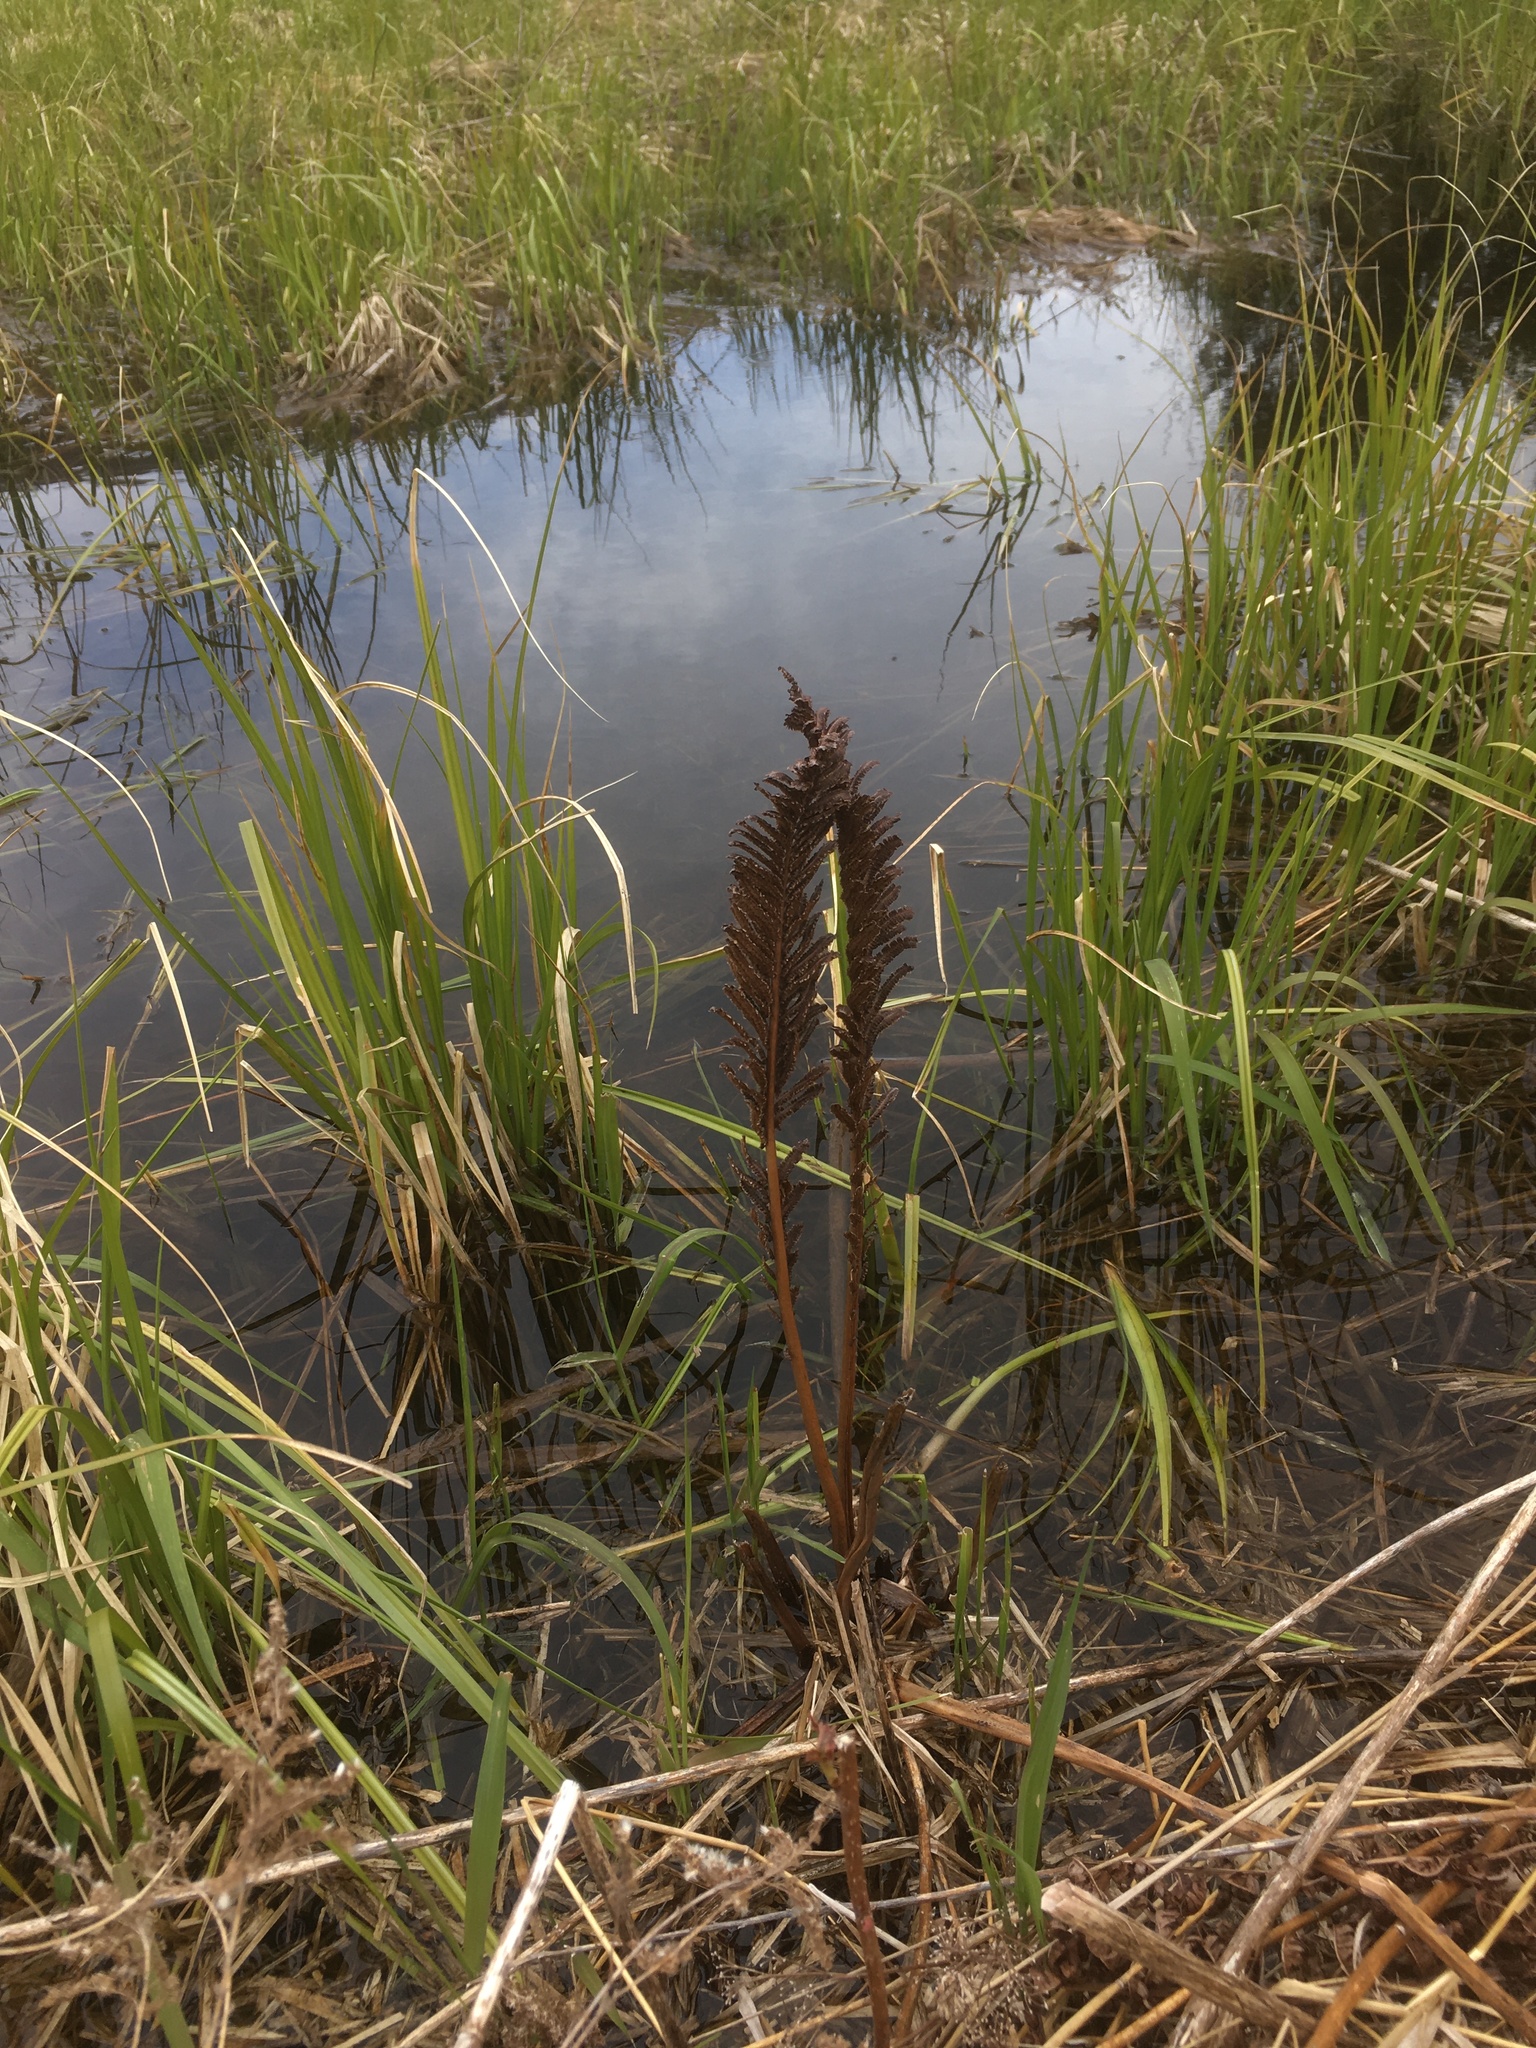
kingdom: Plantae
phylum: Tracheophyta
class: Polypodiopsida
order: Polypodiales
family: Onocleaceae
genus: Matteuccia
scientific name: Matteuccia struthiopteris
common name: Ostrich fern
